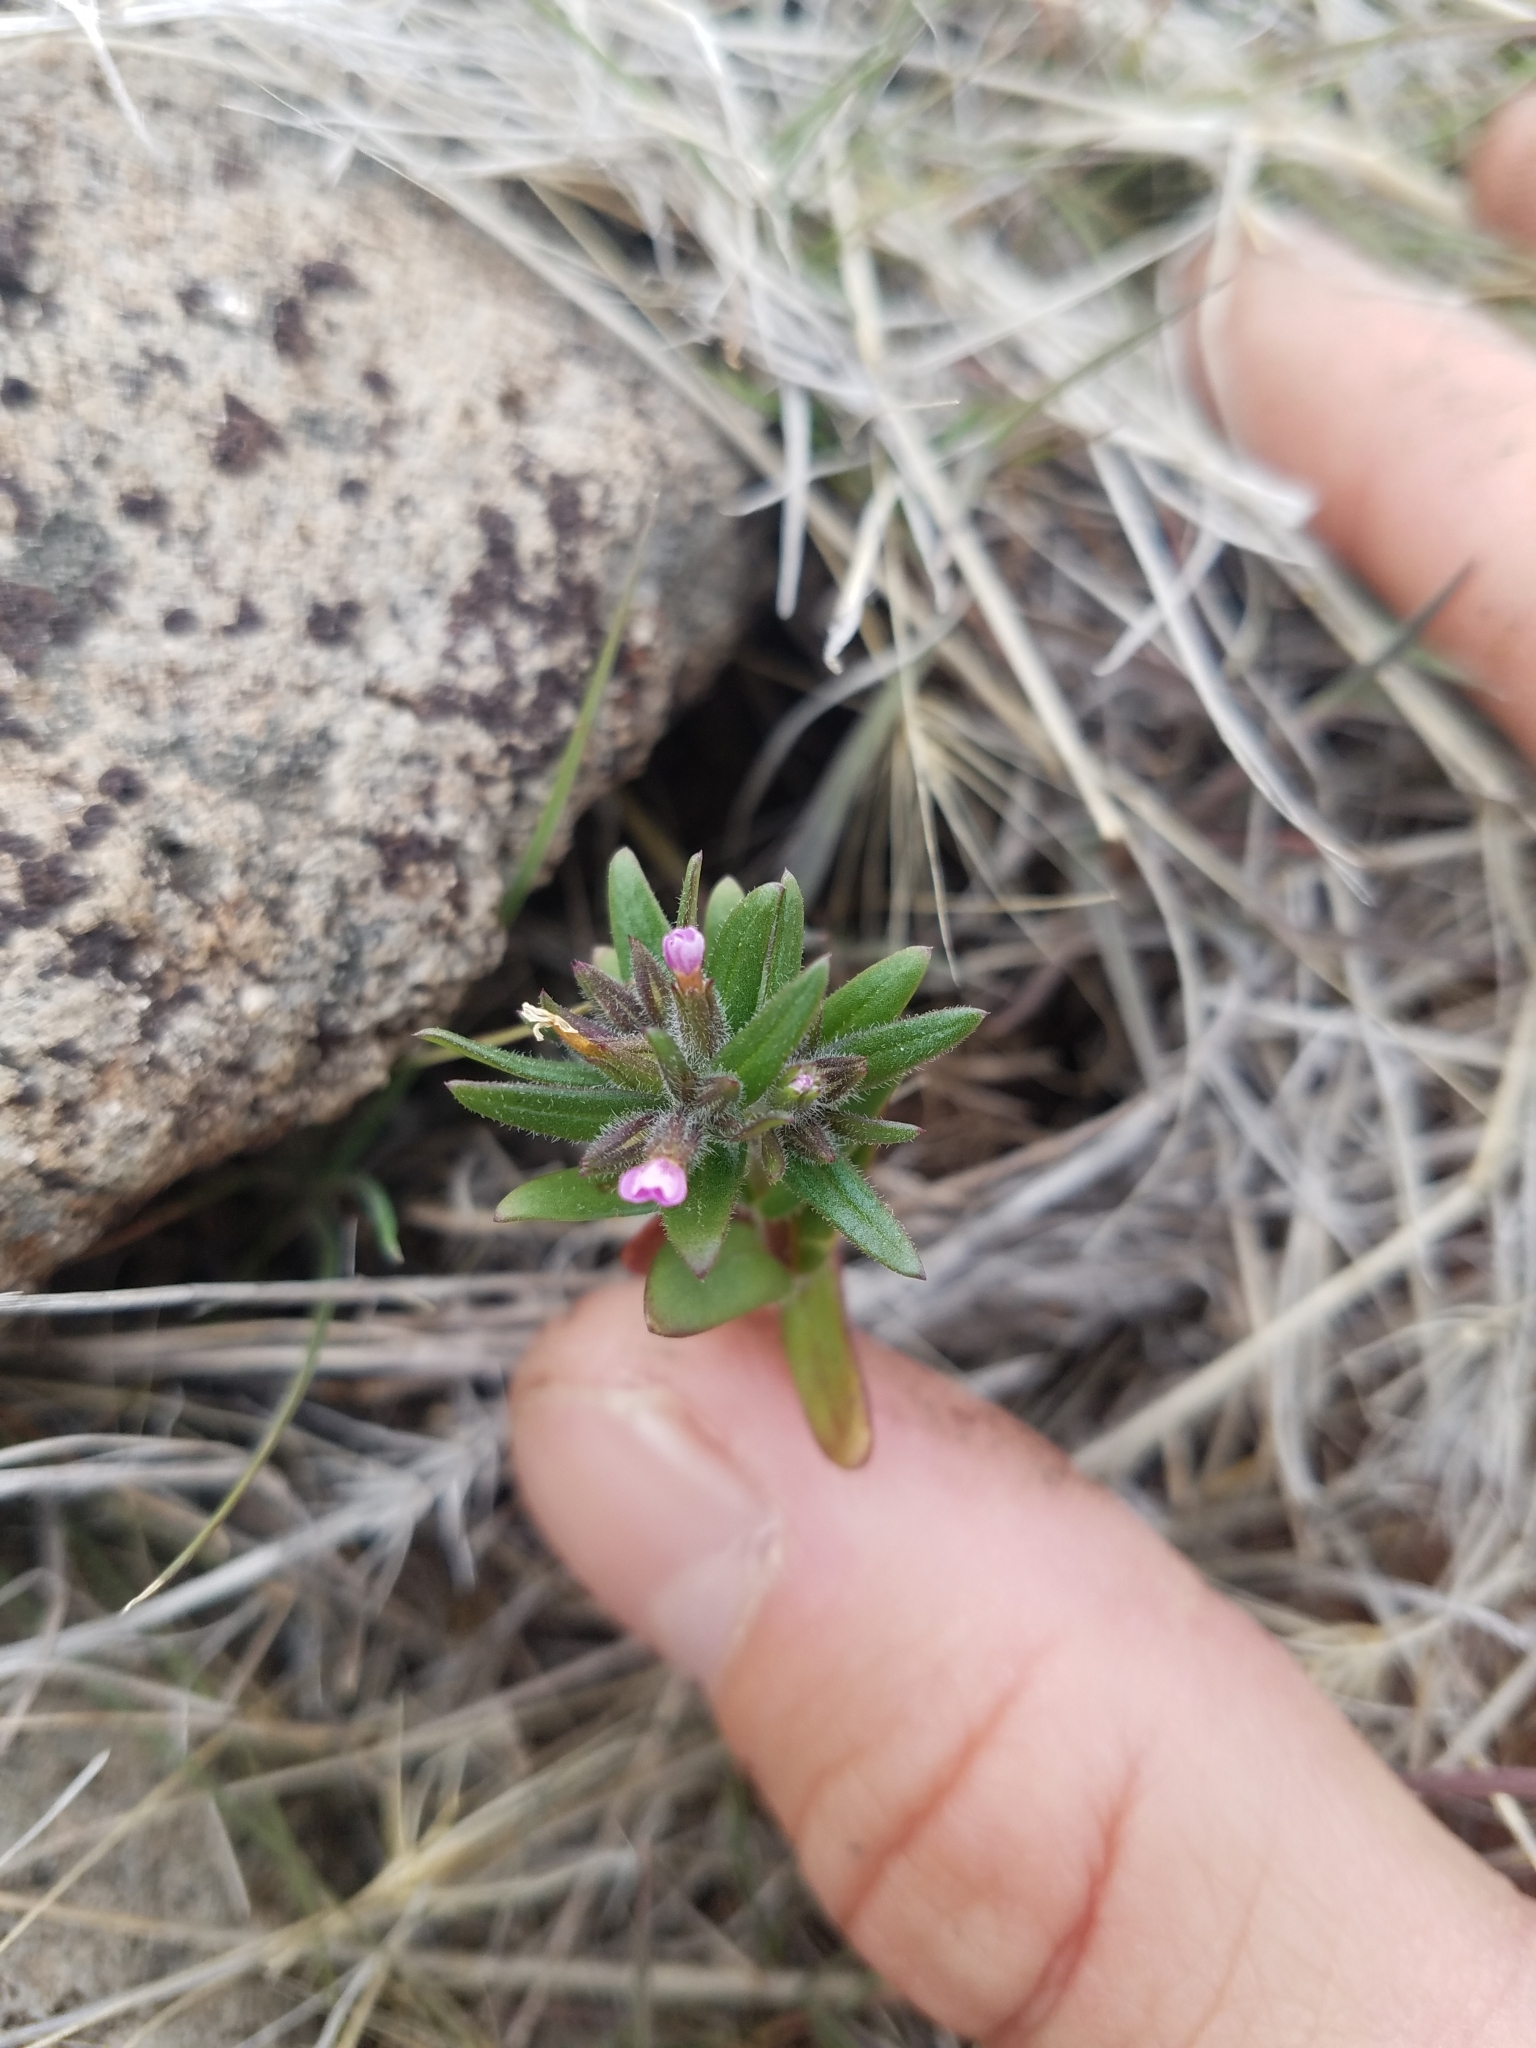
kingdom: Plantae
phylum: Tracheophyta
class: Magnoliopsida
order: Ericales
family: Polemoniaceae
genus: Phlox
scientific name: Phlox gracilis
